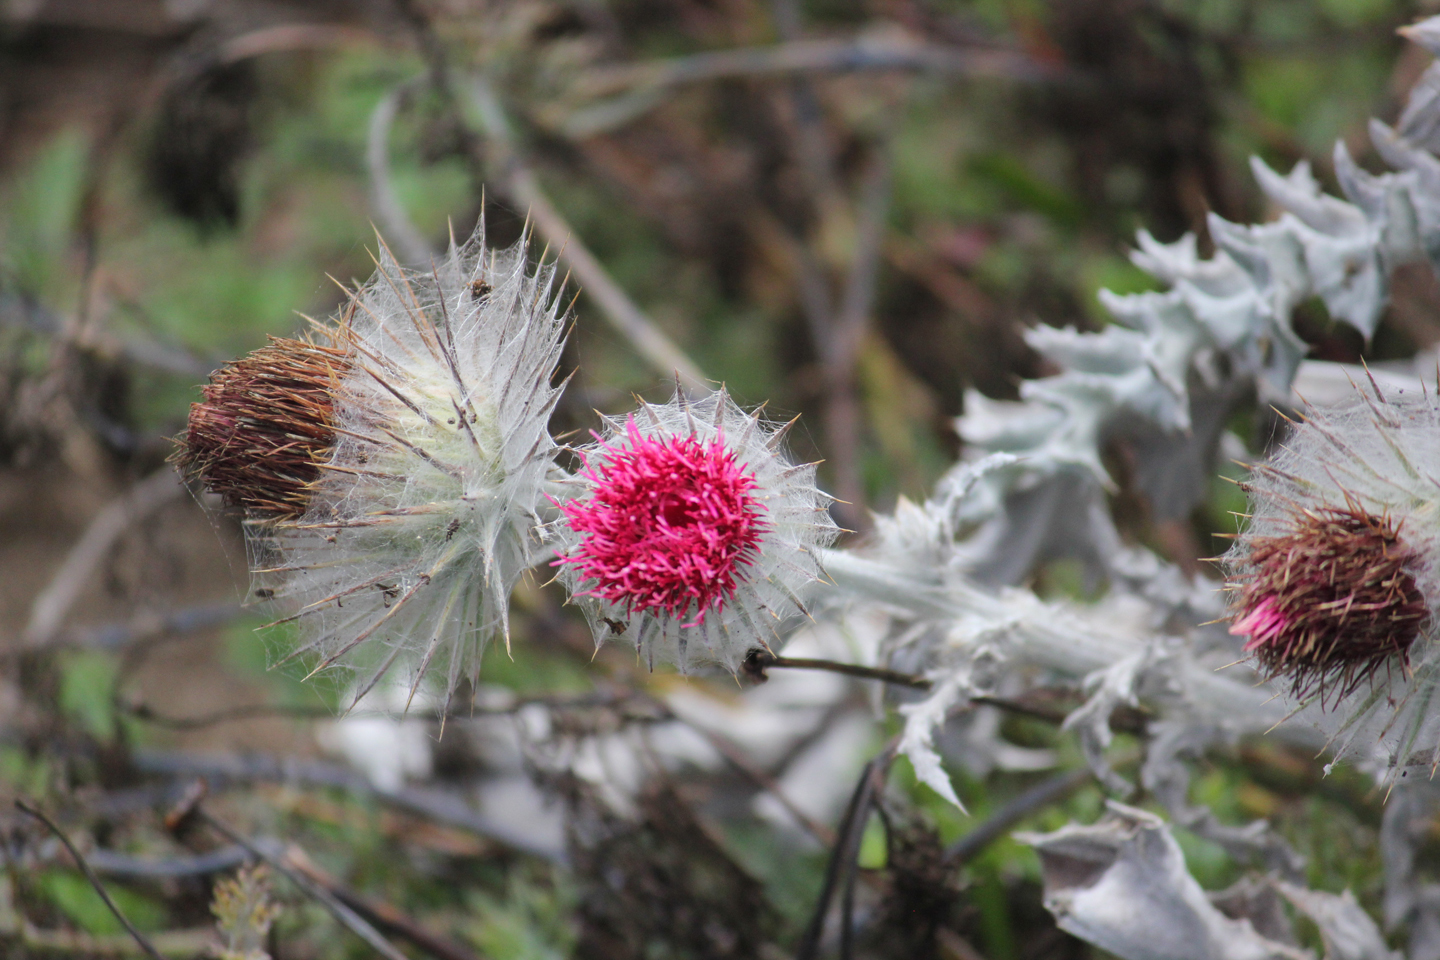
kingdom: Plantae
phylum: Tracheophyta
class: Magnoliopsida
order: Asterales
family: Asteraceae
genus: Cirsium
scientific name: Cirsium occidentale
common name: Western thistle
